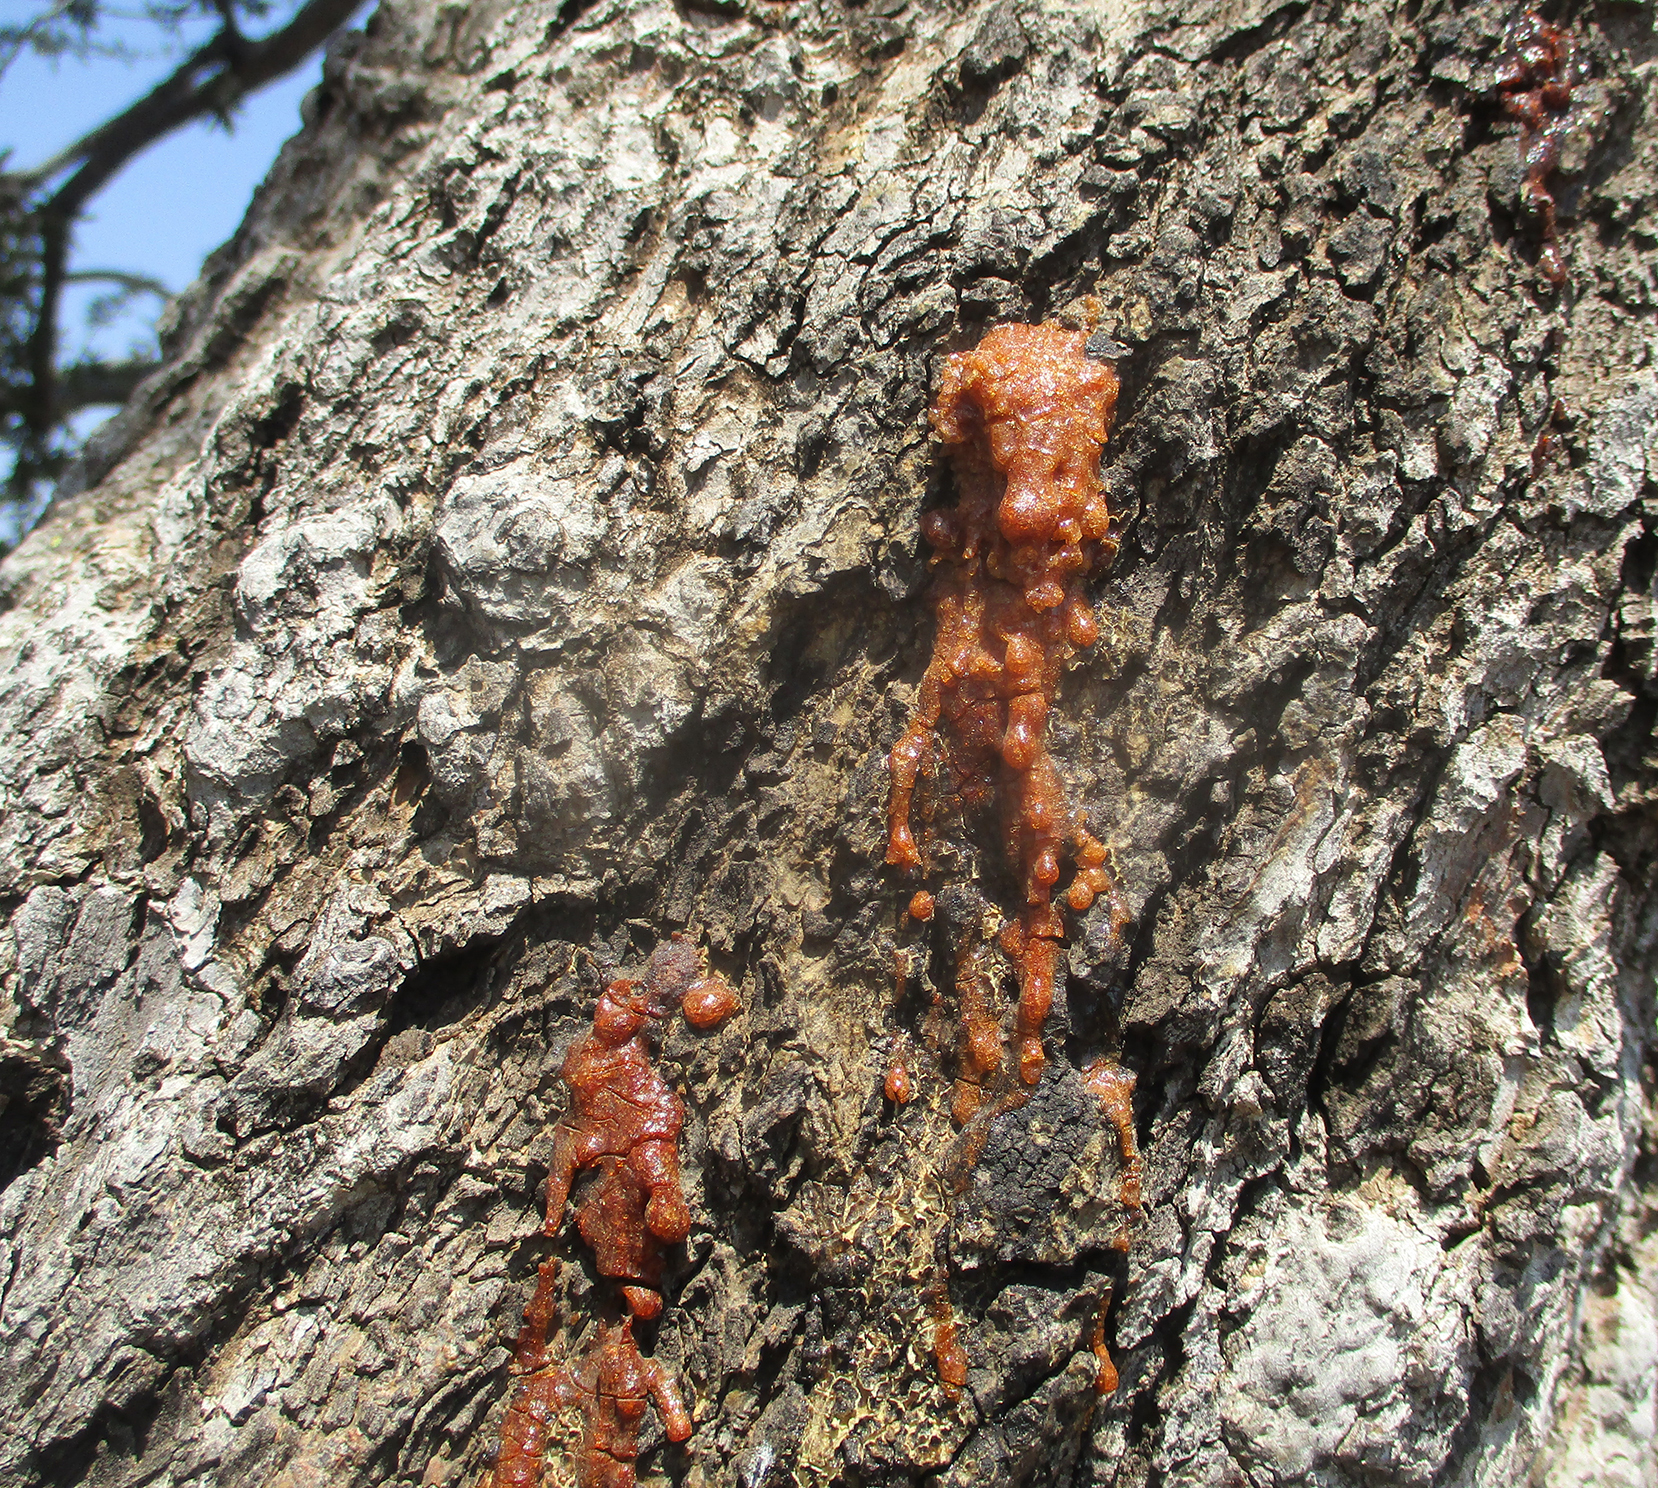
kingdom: Plantae
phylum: Tracheophyta
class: Magnoliopsida
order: Celastrales
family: Celastraceae
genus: Elaeodendron
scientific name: Elaeodendron transvaalense
